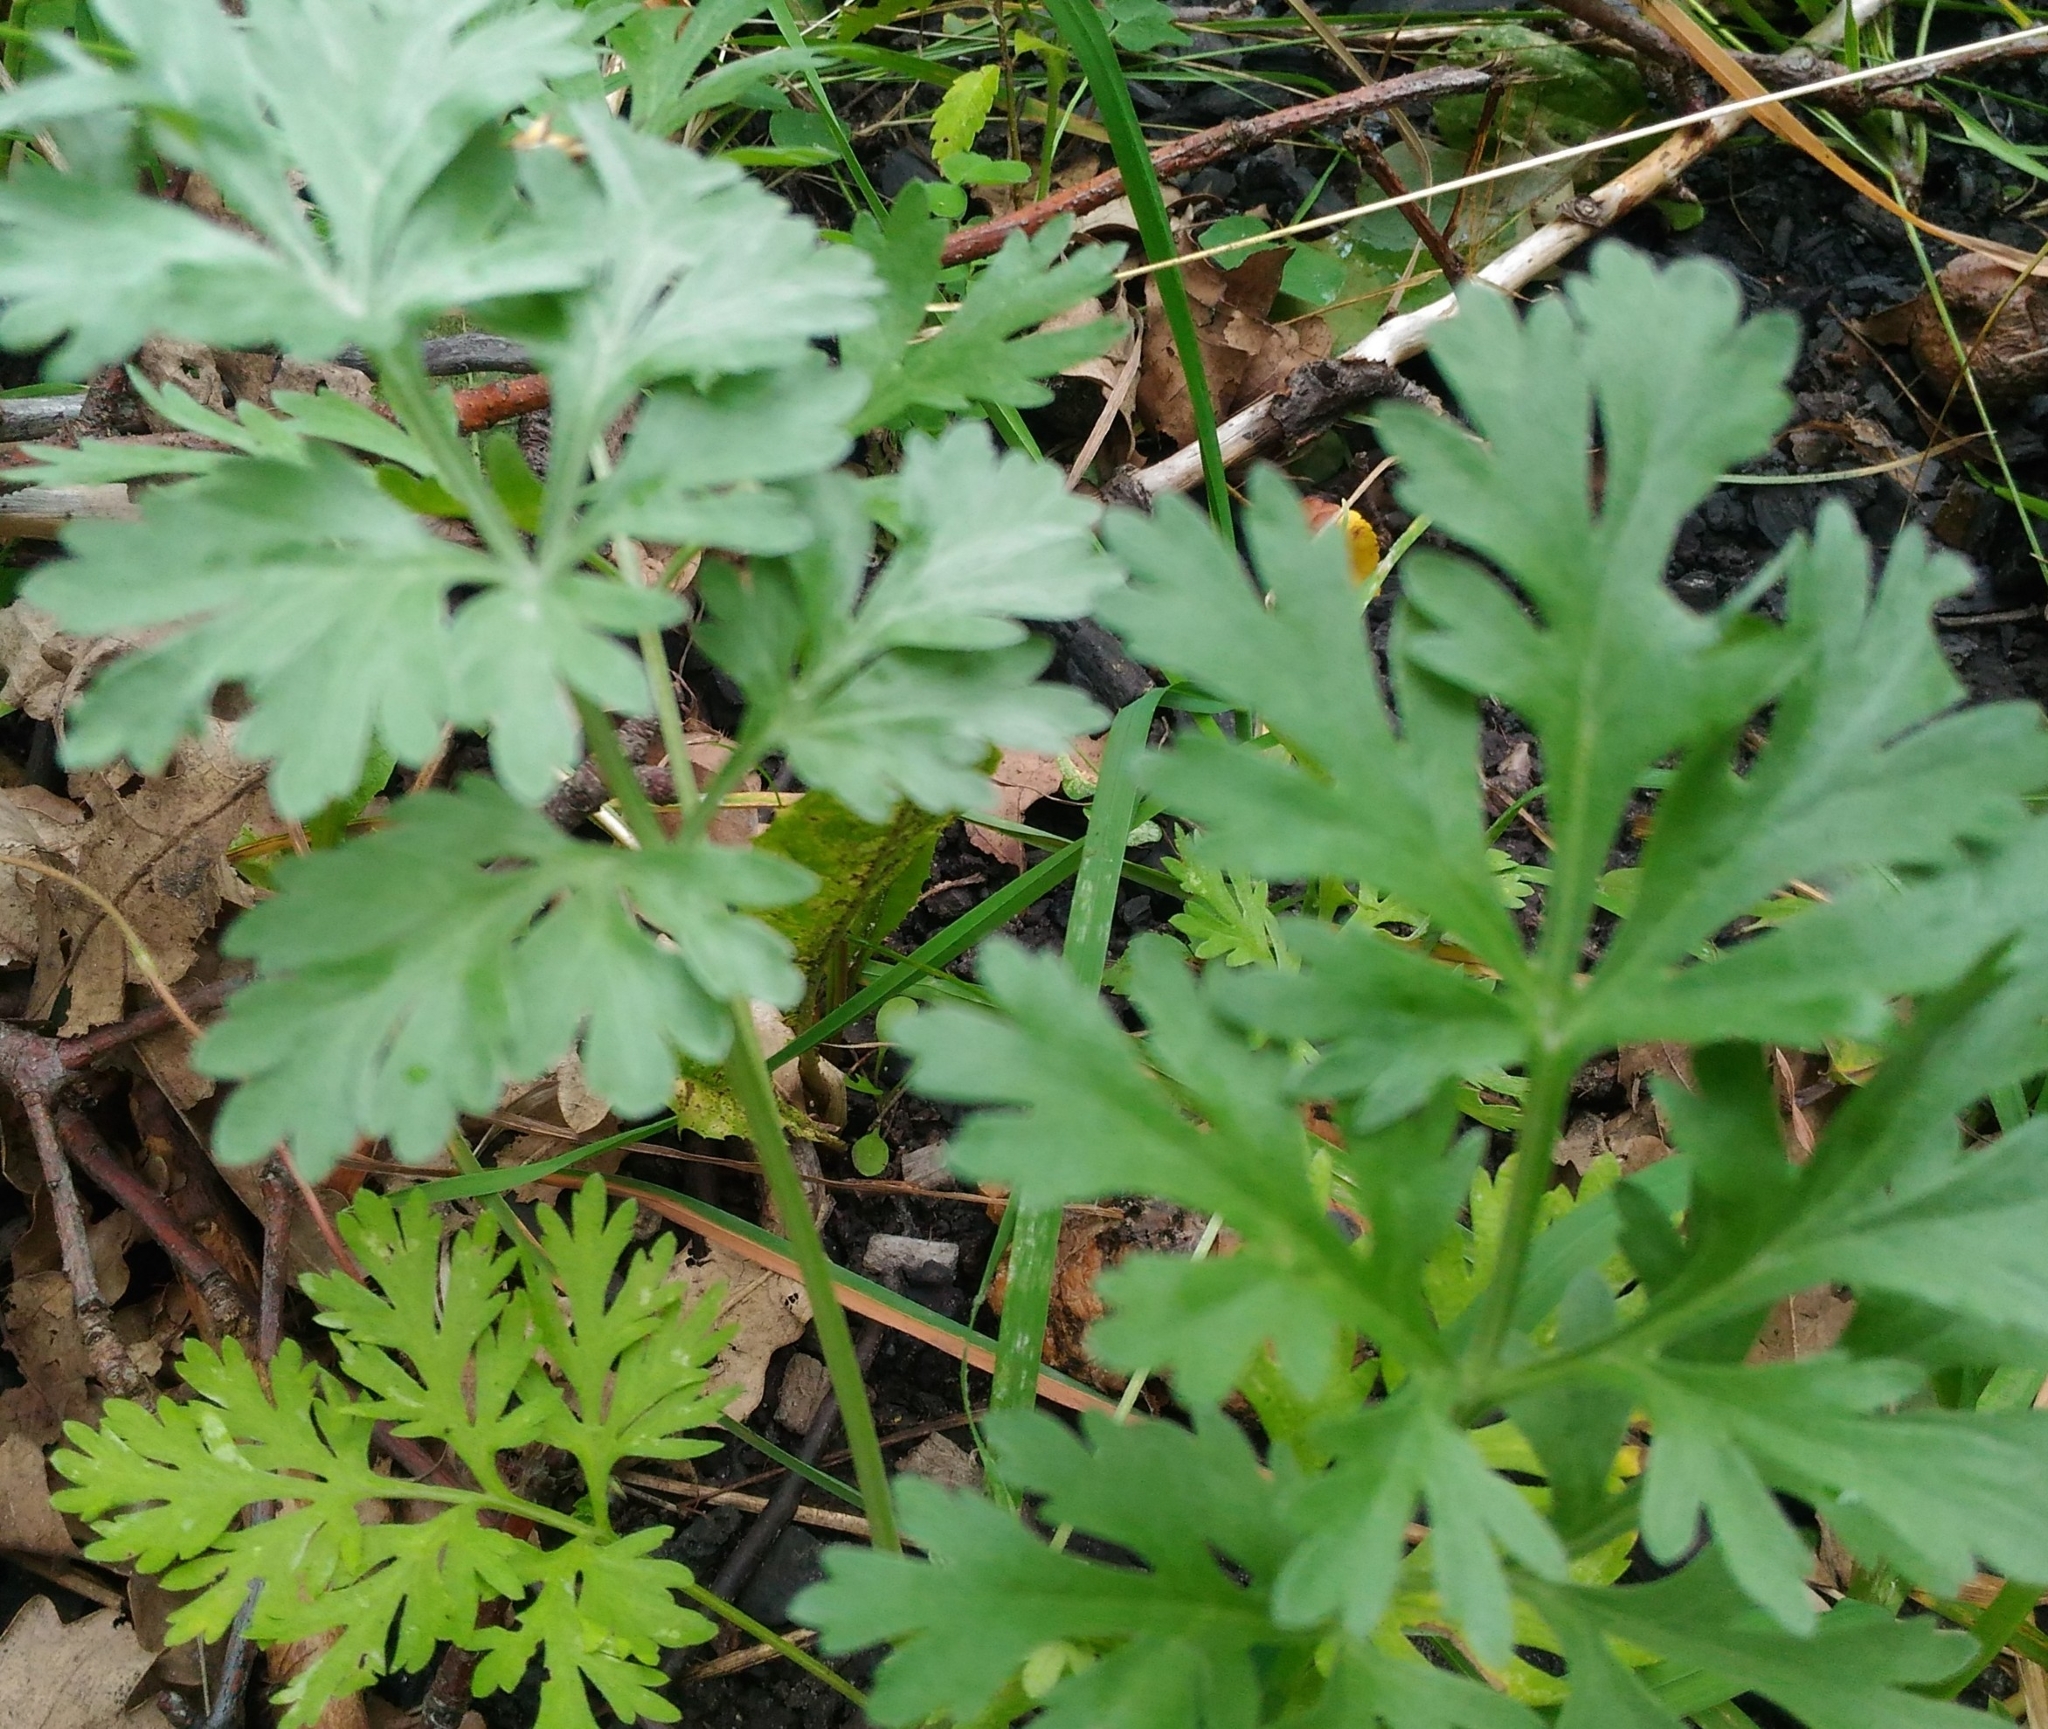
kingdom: Plantae
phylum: Tracheophyta
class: Magnoliopsida
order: Asterales
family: Asteraceae
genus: Artemisia
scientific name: Artemisia absinthium
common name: Wormwood
